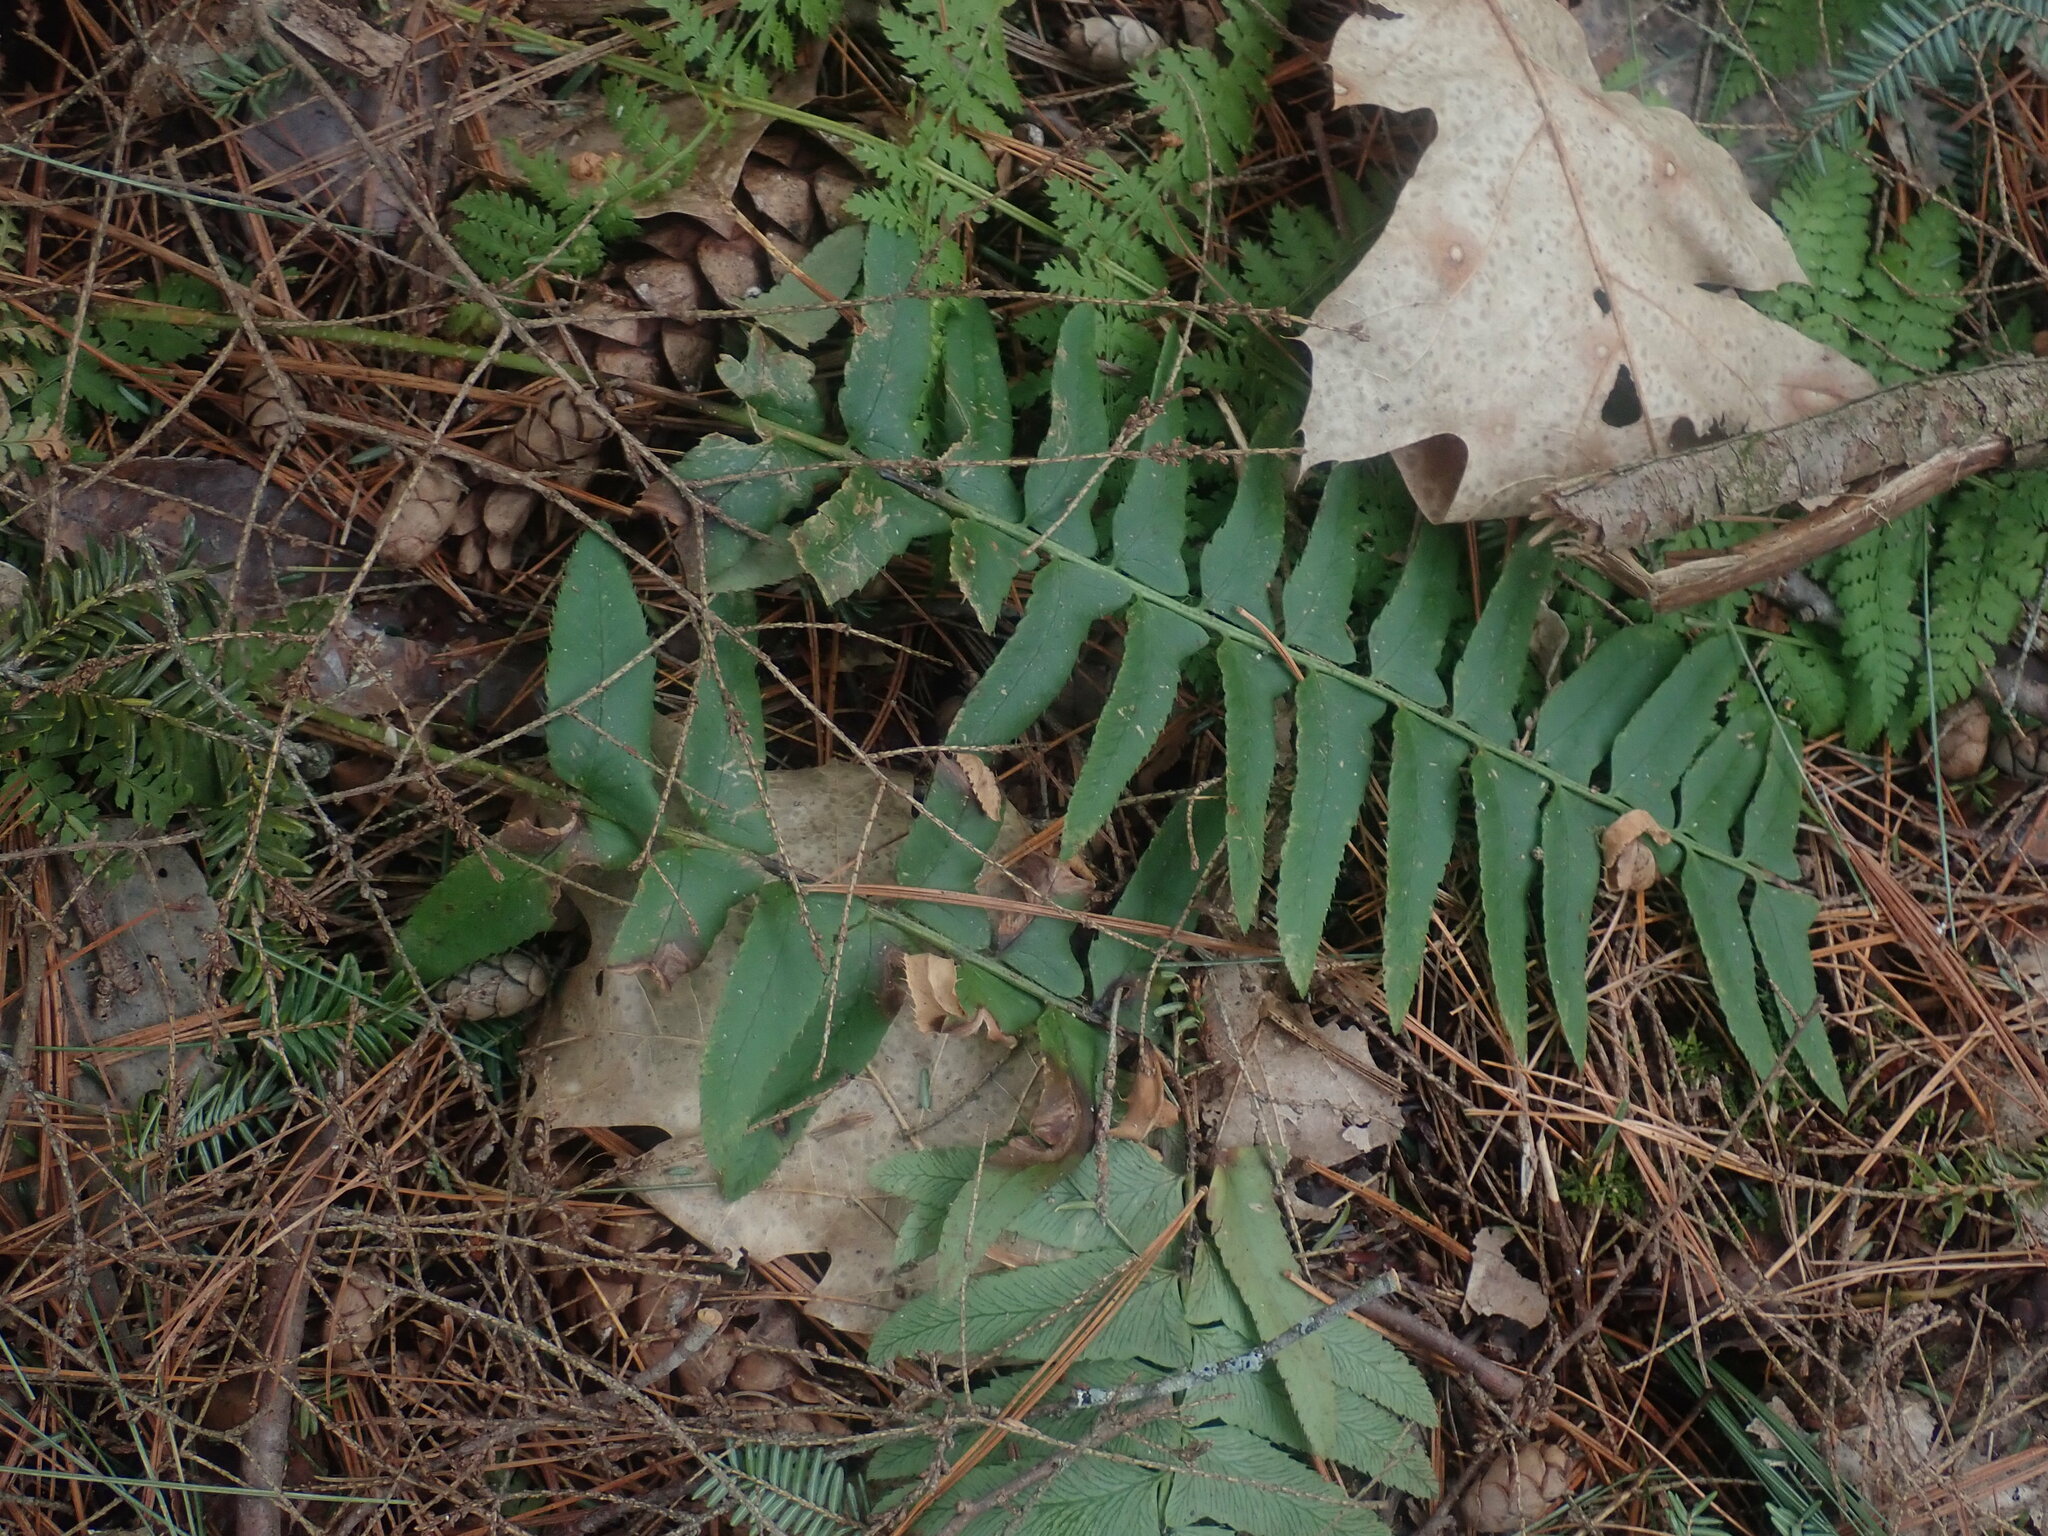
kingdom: Plantae
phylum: Tracheophyta
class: Polypodiopsida
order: Polypodiales
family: Dryopteridaceae
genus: Polystichum
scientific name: Polystichum acrostichoides
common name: Christmas fern
